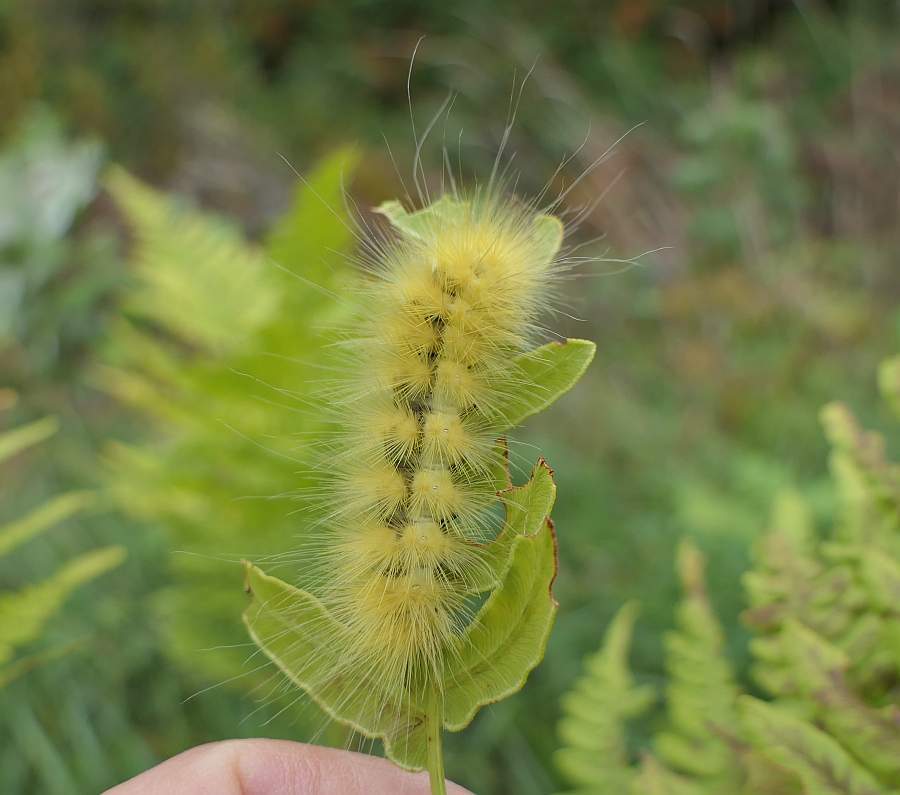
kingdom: Animalia
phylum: Arthropoda
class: Insecta
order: Lepidoptera
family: Erebidae
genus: Spilosoma
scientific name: Spilosoma virginica
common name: Virginia tiger moth
